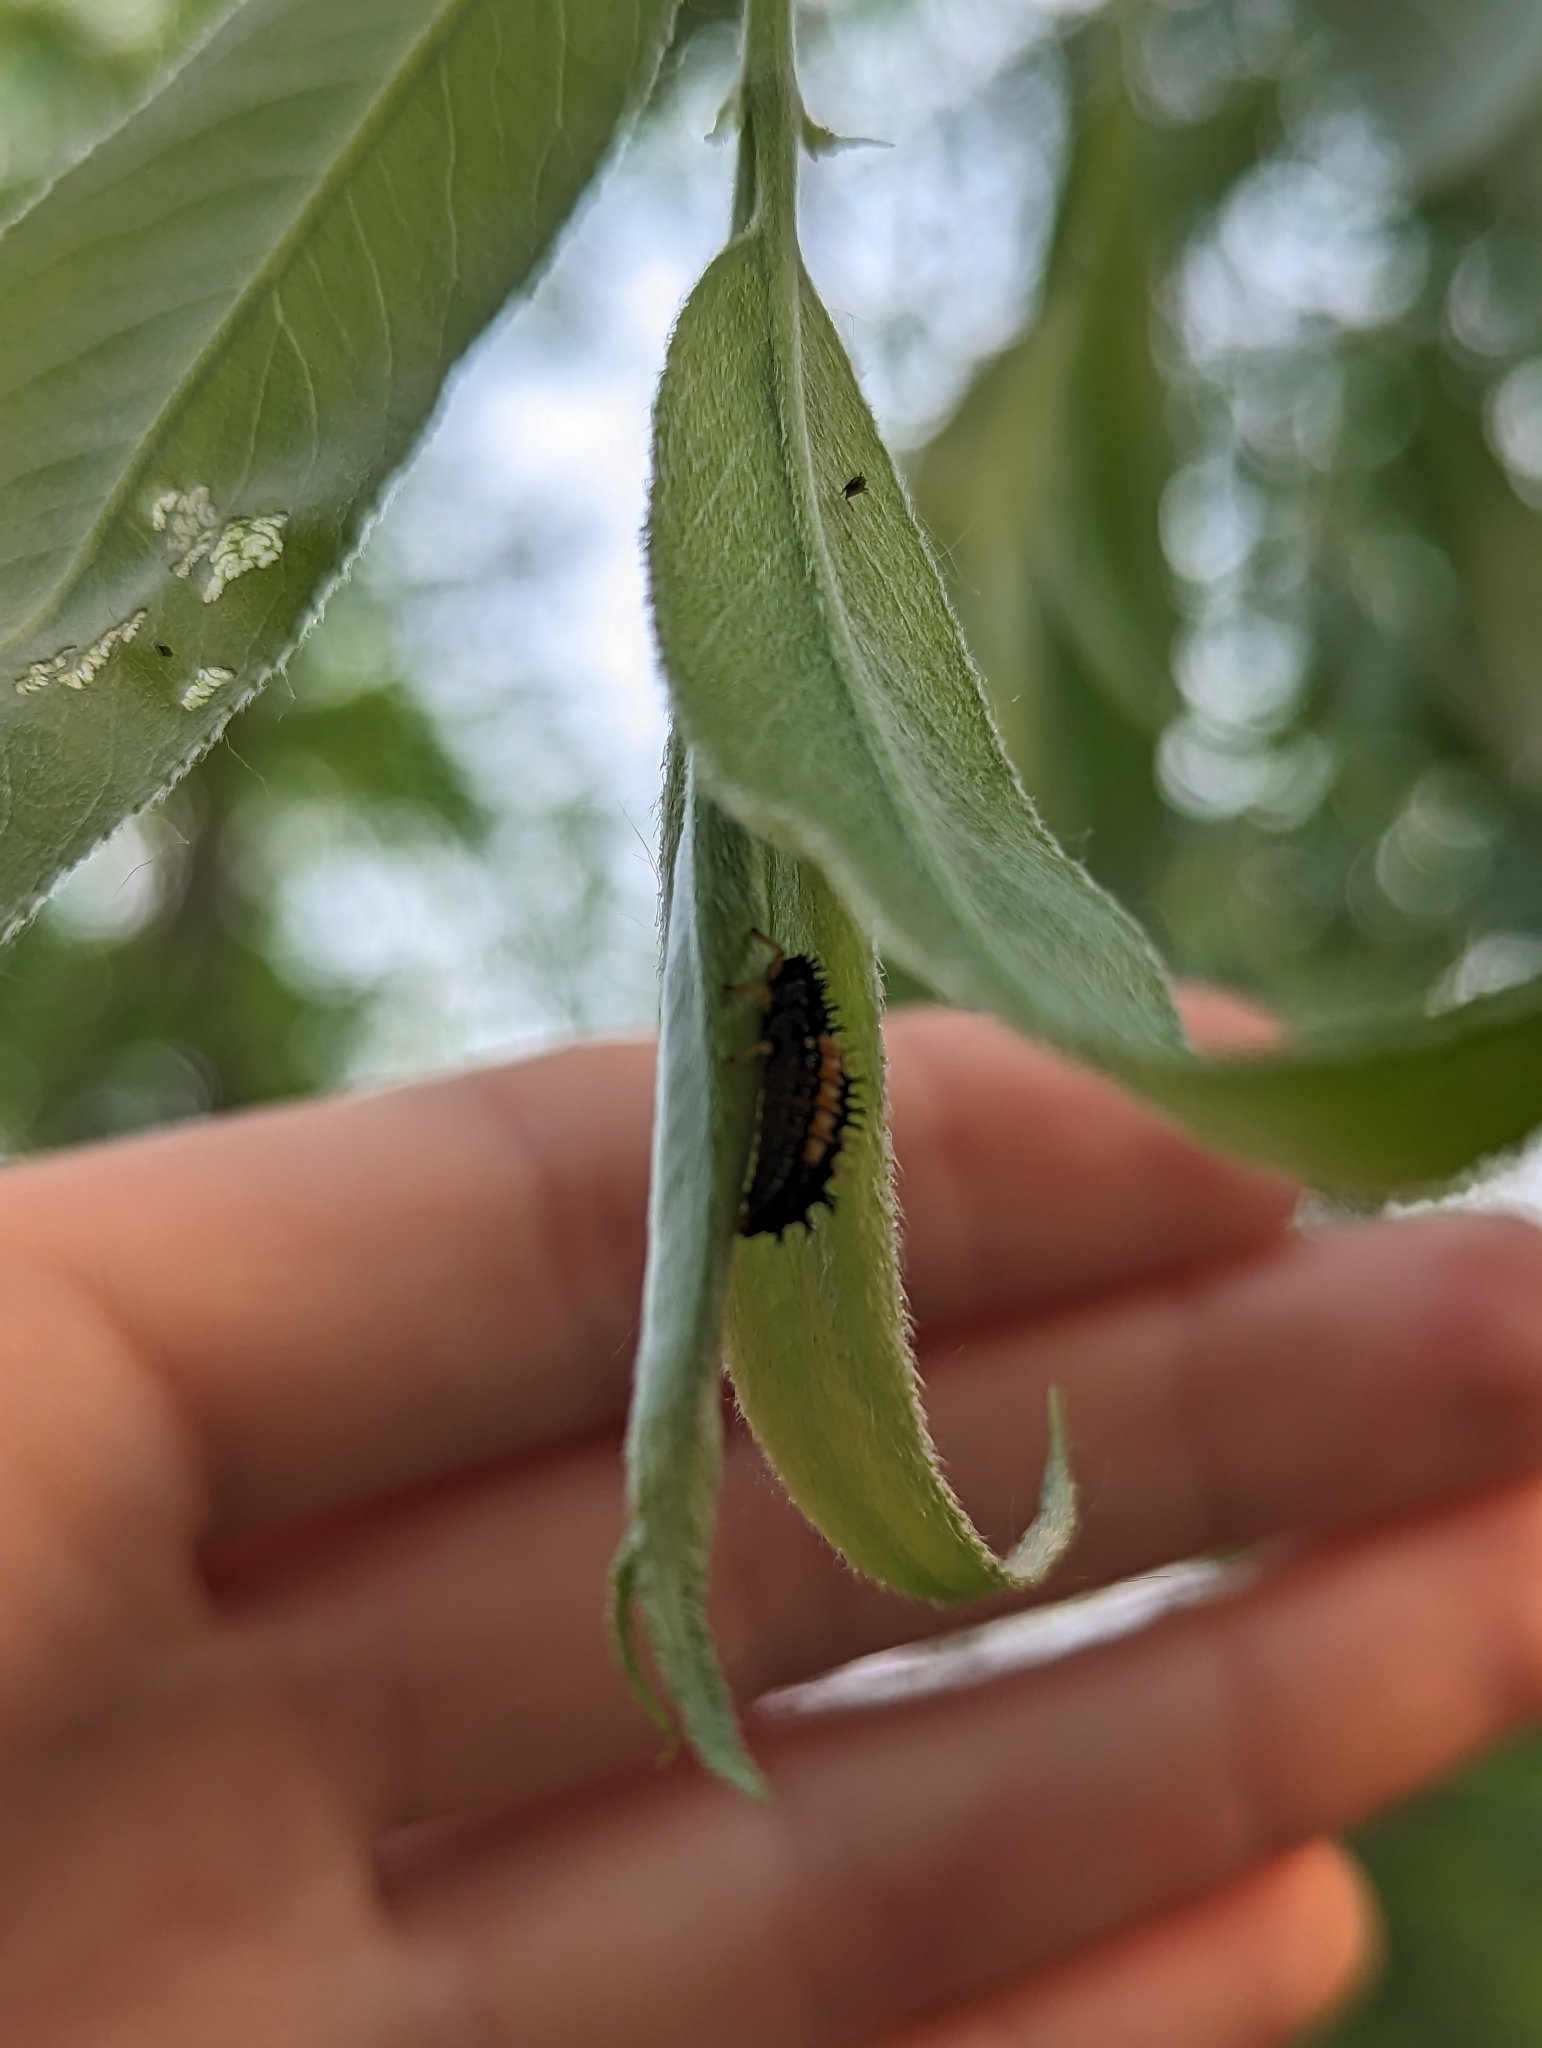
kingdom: Animalia
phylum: Arthropoda
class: Insecta
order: Coleoptera
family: Coccinellidae
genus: Harmonia
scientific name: Harmonia axyridis
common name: Harlequin ladybird
